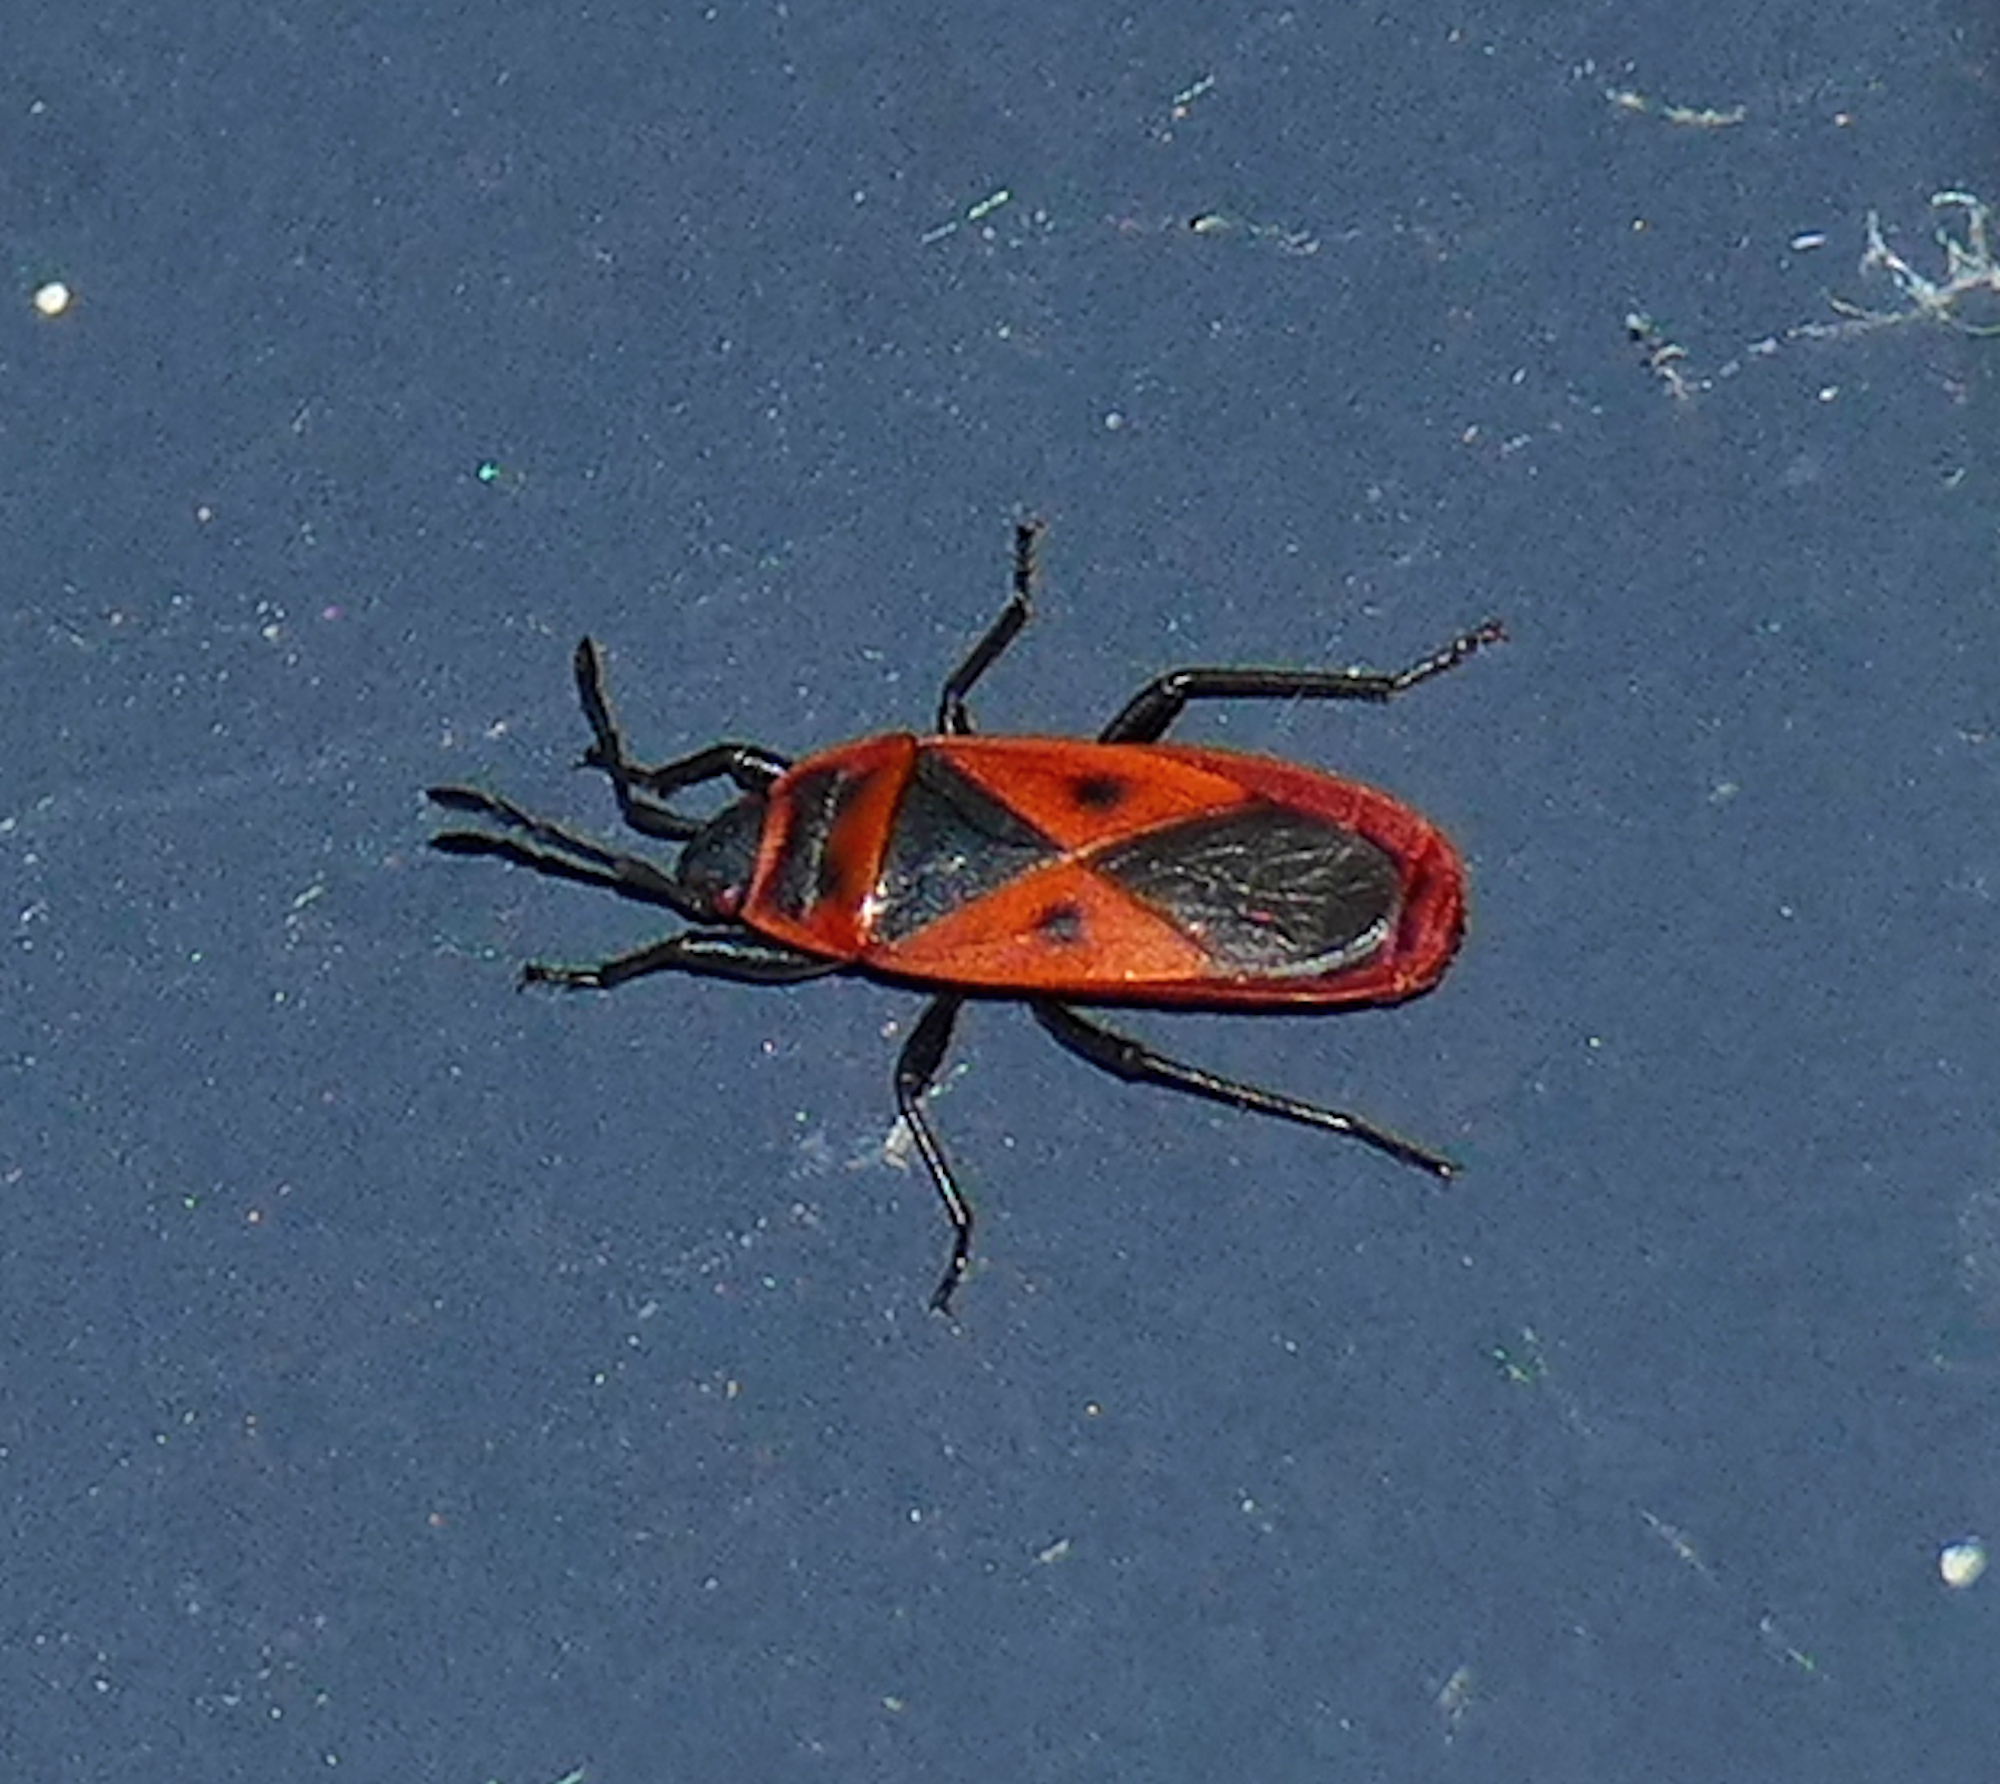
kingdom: Animalia
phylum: Arthropoda
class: Insecta
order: Hemiptera
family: Pyrrhocoridae
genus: Scantius
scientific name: Scantius aegyptius
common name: Red bug
